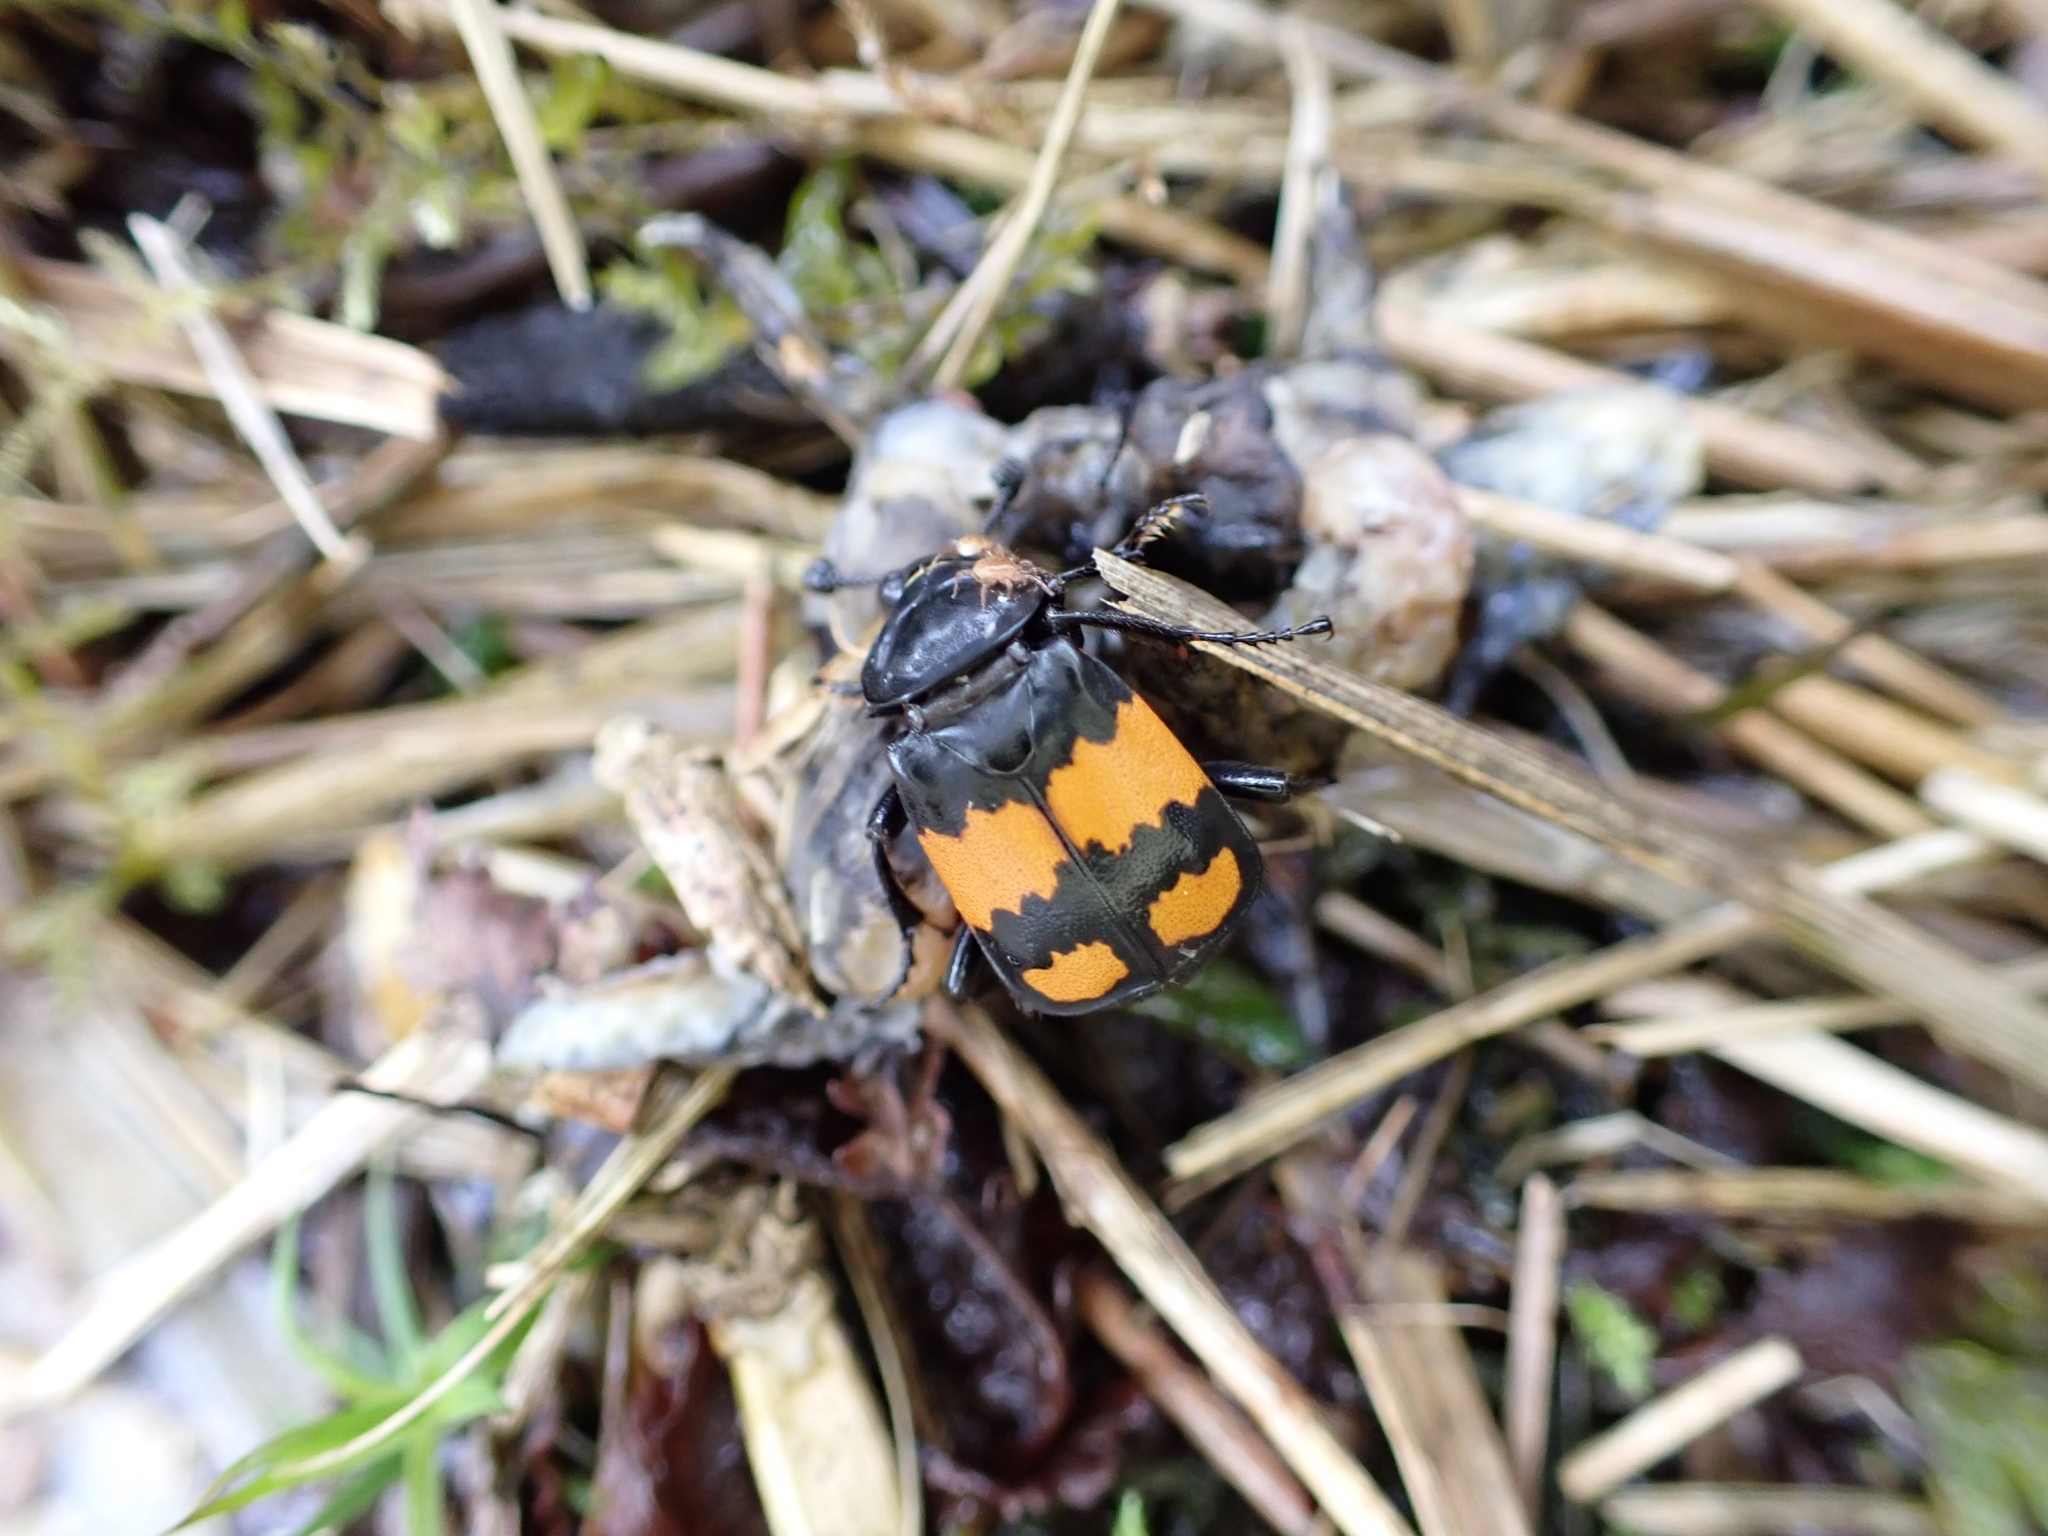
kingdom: Animalia
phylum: Arthropoda
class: Insecta
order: Coleoptera
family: Staphylinidae
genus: Nicrophorus
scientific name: Nicrophorus vespilloides
